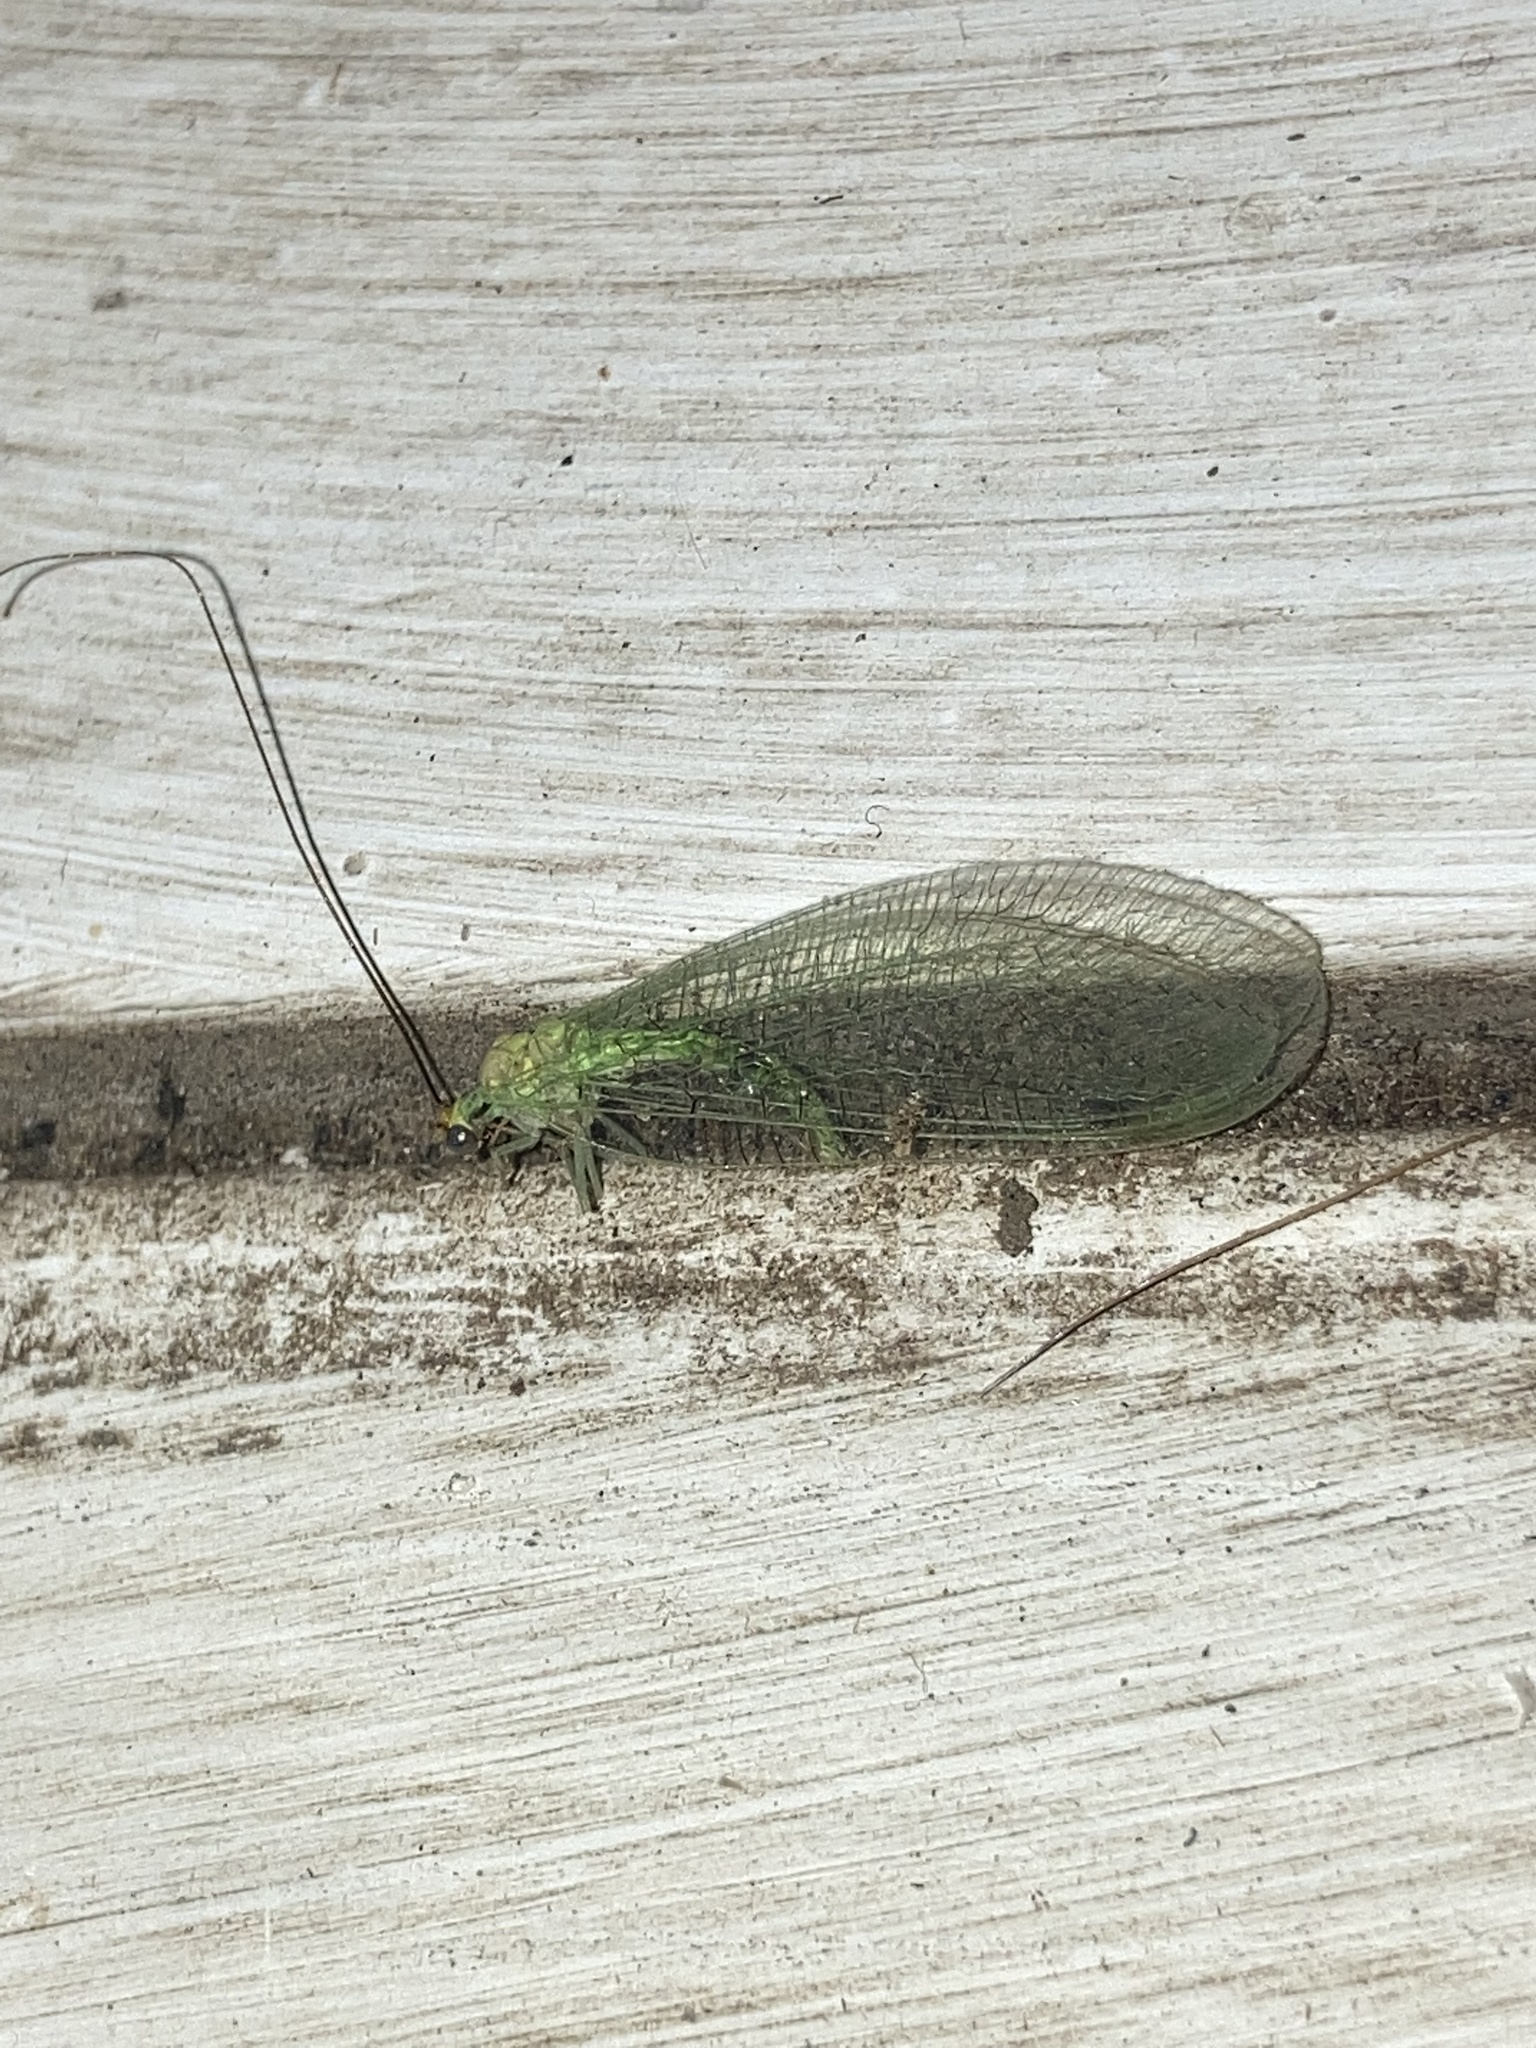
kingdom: Animalia
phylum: Arthropoda
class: Insecta
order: Neuroptera
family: Chrysopidae
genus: Leucochrysa
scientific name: Leucochrysa pavida
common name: Lichen-carrying green lacewing
